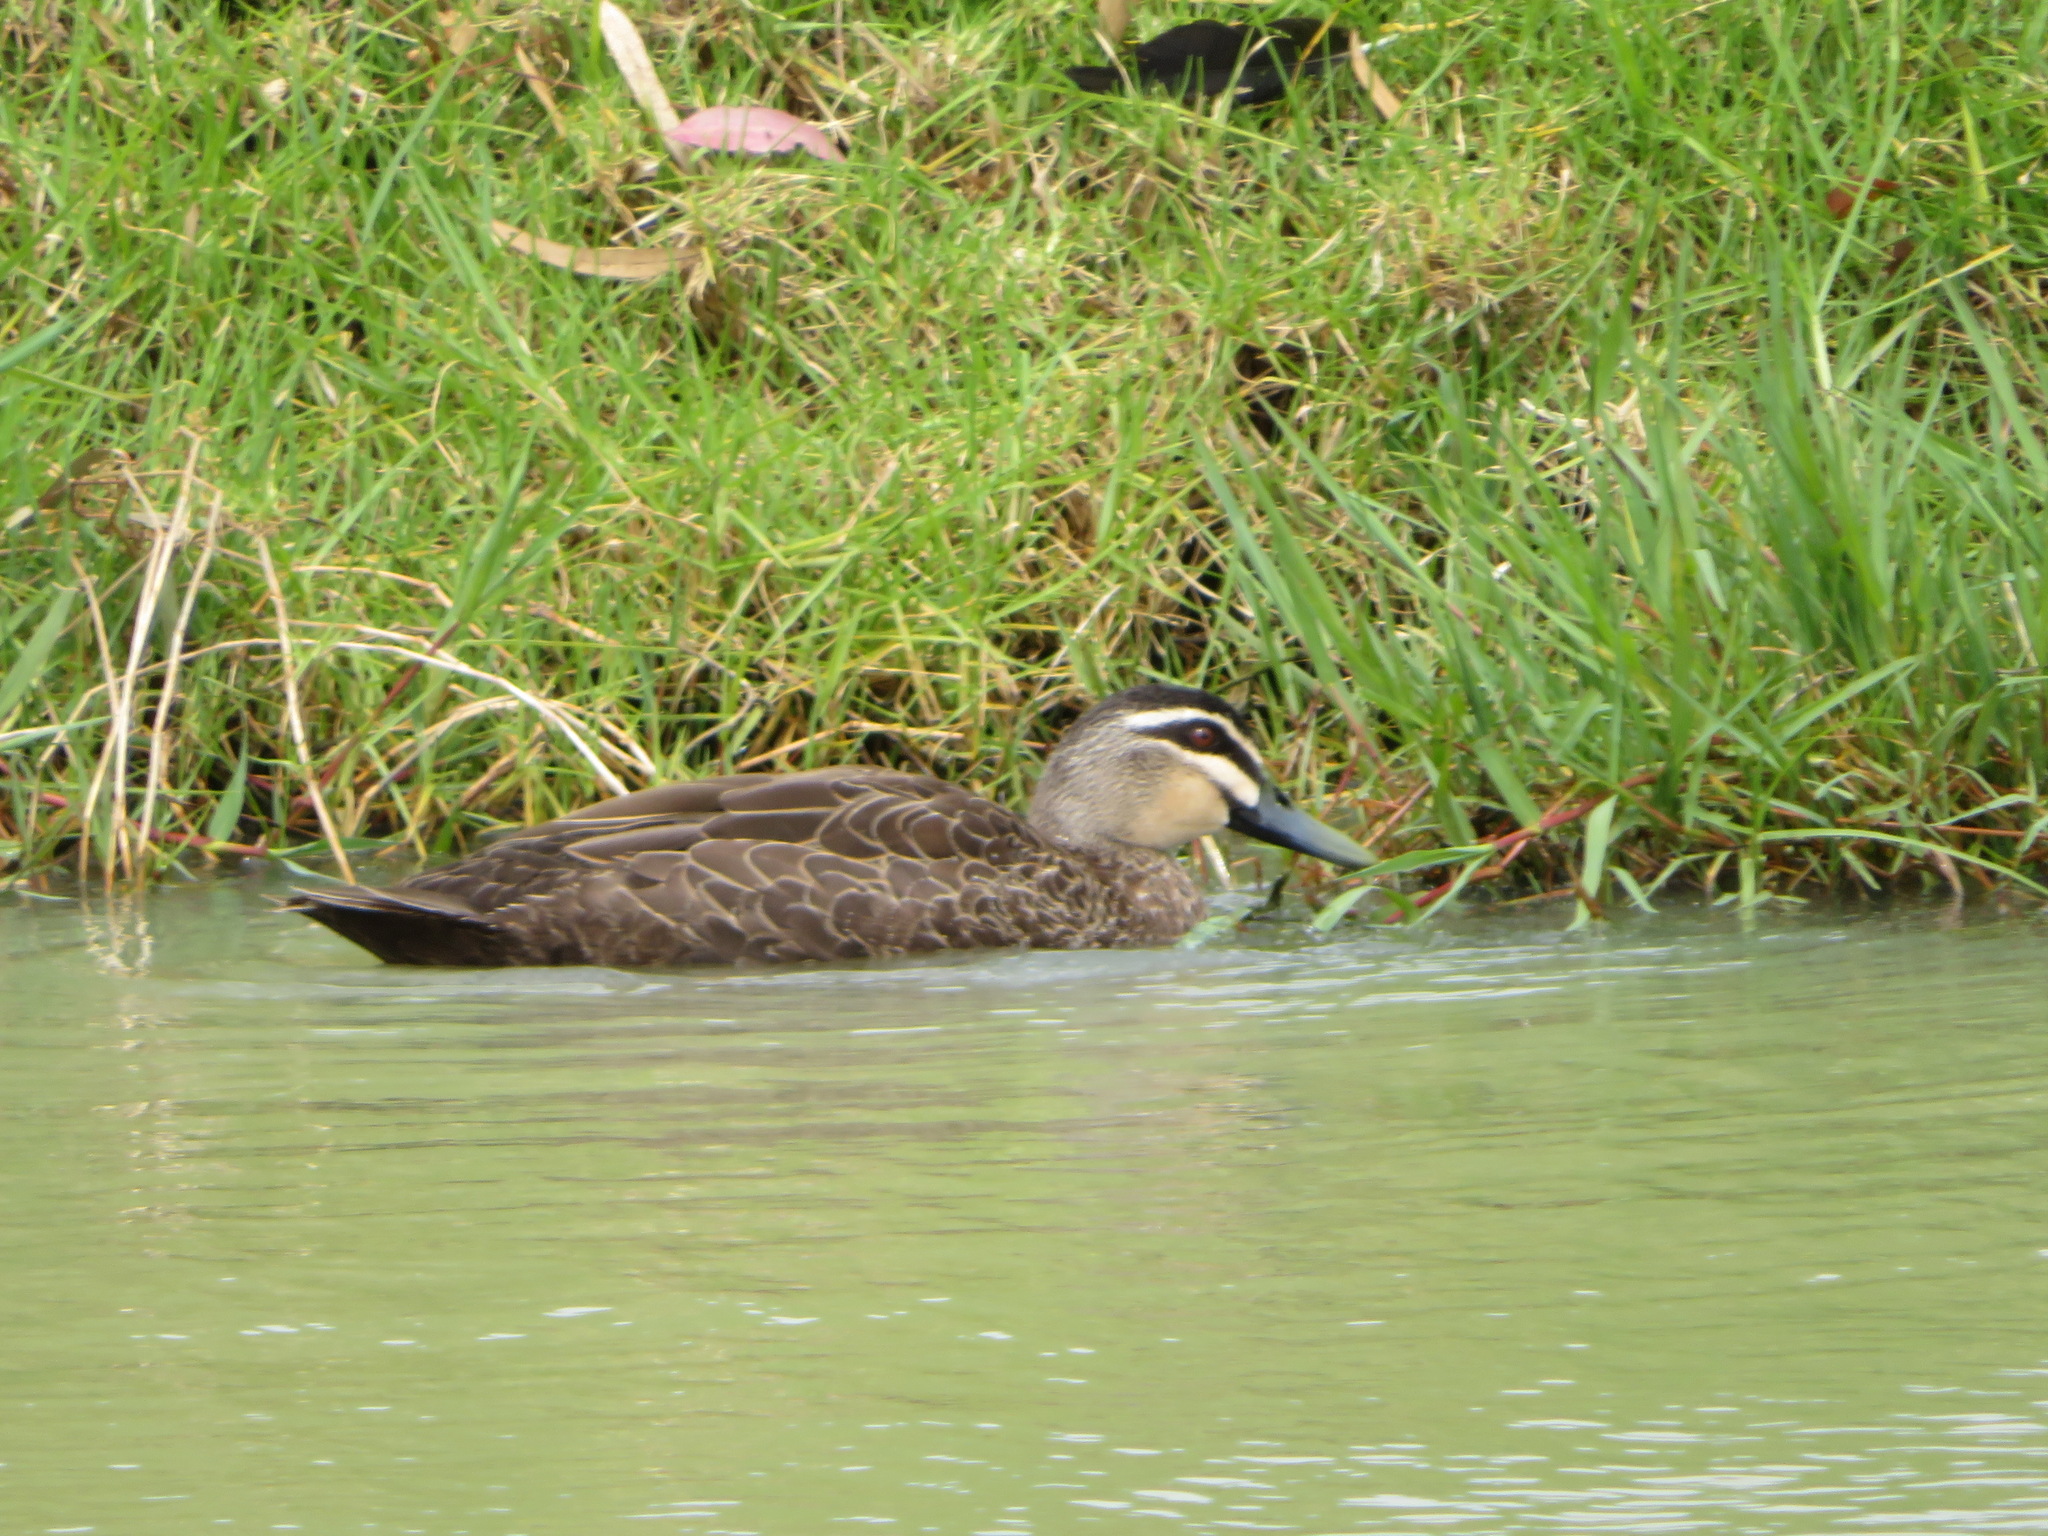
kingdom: Animalia
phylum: Chordata
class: Aves
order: Anseriformes
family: Anatidae
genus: Anas
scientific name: Anas superciliosa
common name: Pacific black duck
